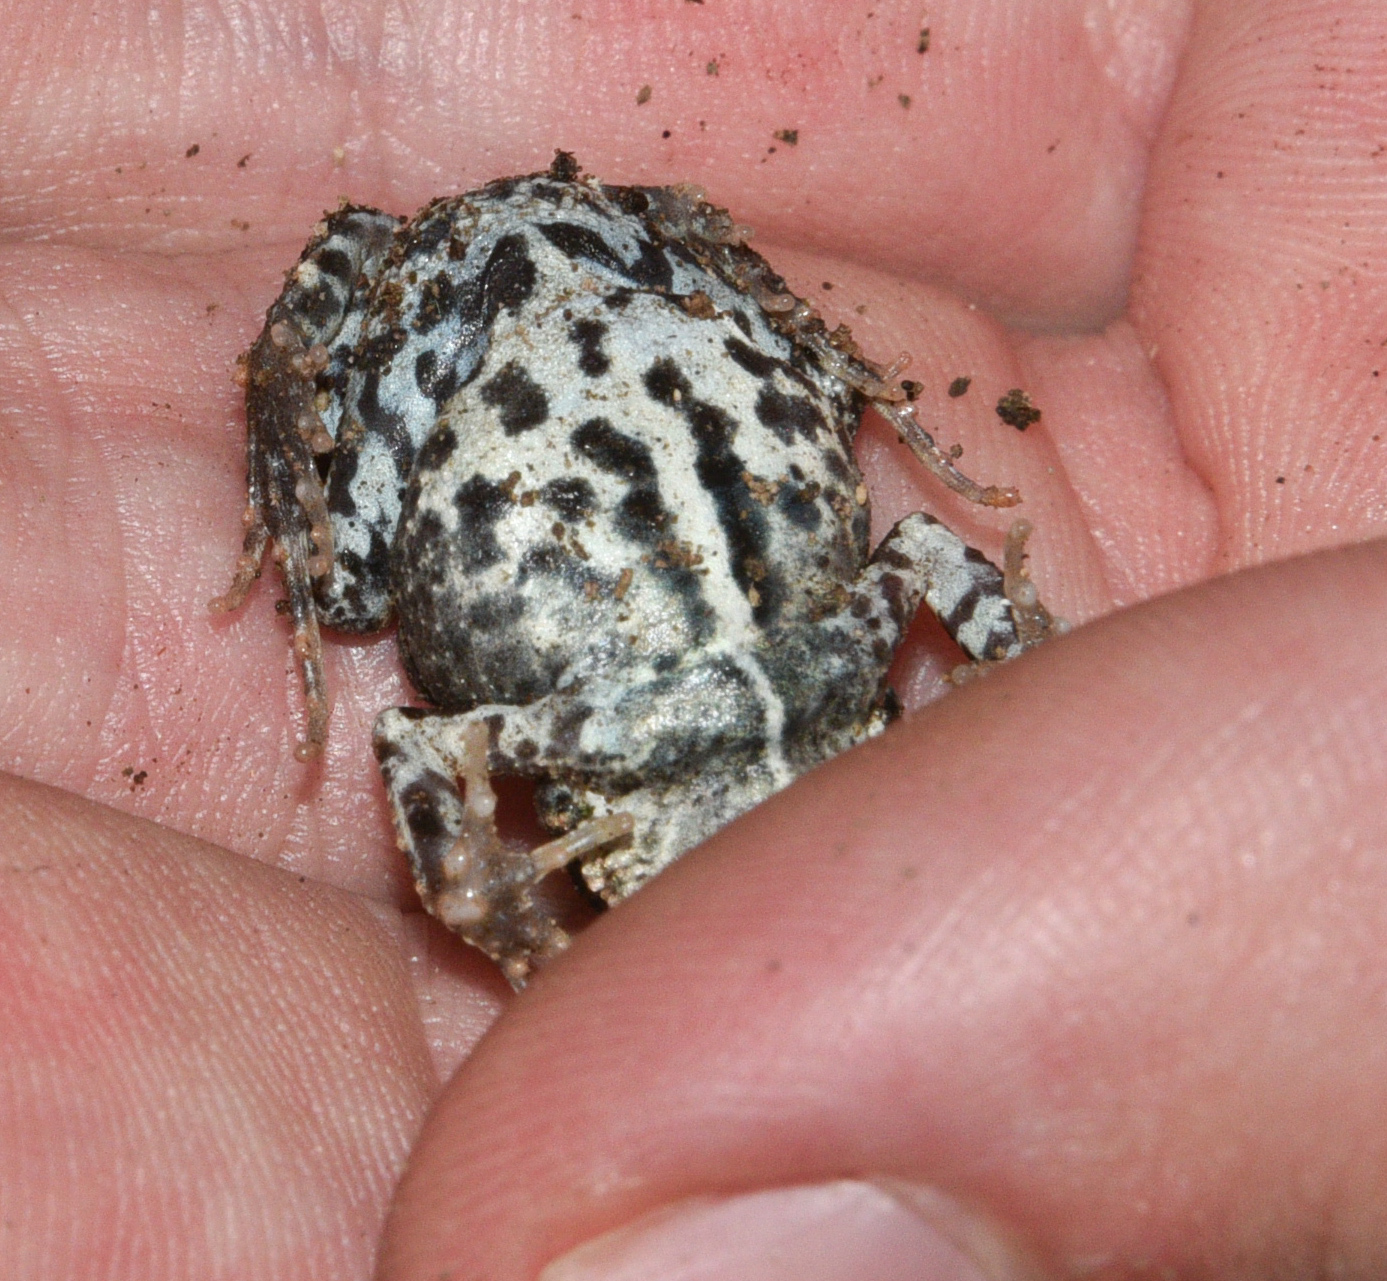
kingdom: Animalia
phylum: Chordata
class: Amphibia
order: Anura
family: Leptodactylidae
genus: Engystomops
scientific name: Engystomops pustulosus
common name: Tungara frog
